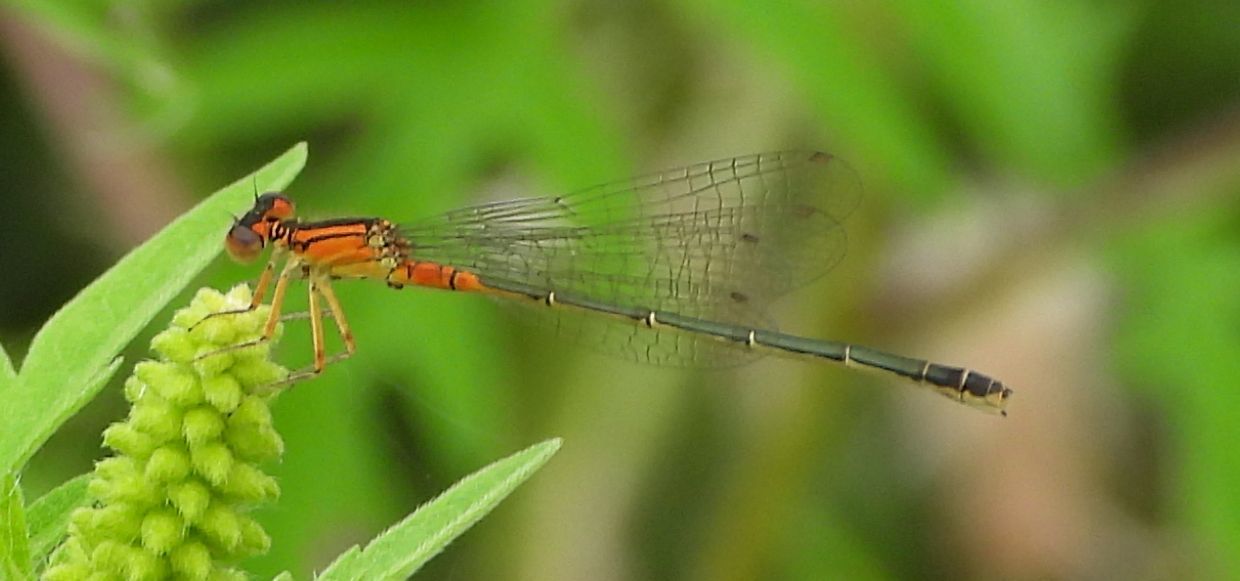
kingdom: Animalia
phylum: Arthropoda
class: Insecta
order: Odonata
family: Coenagrionidae
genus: Ischnura
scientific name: Ischnura verticalis
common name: Eastern forktail
